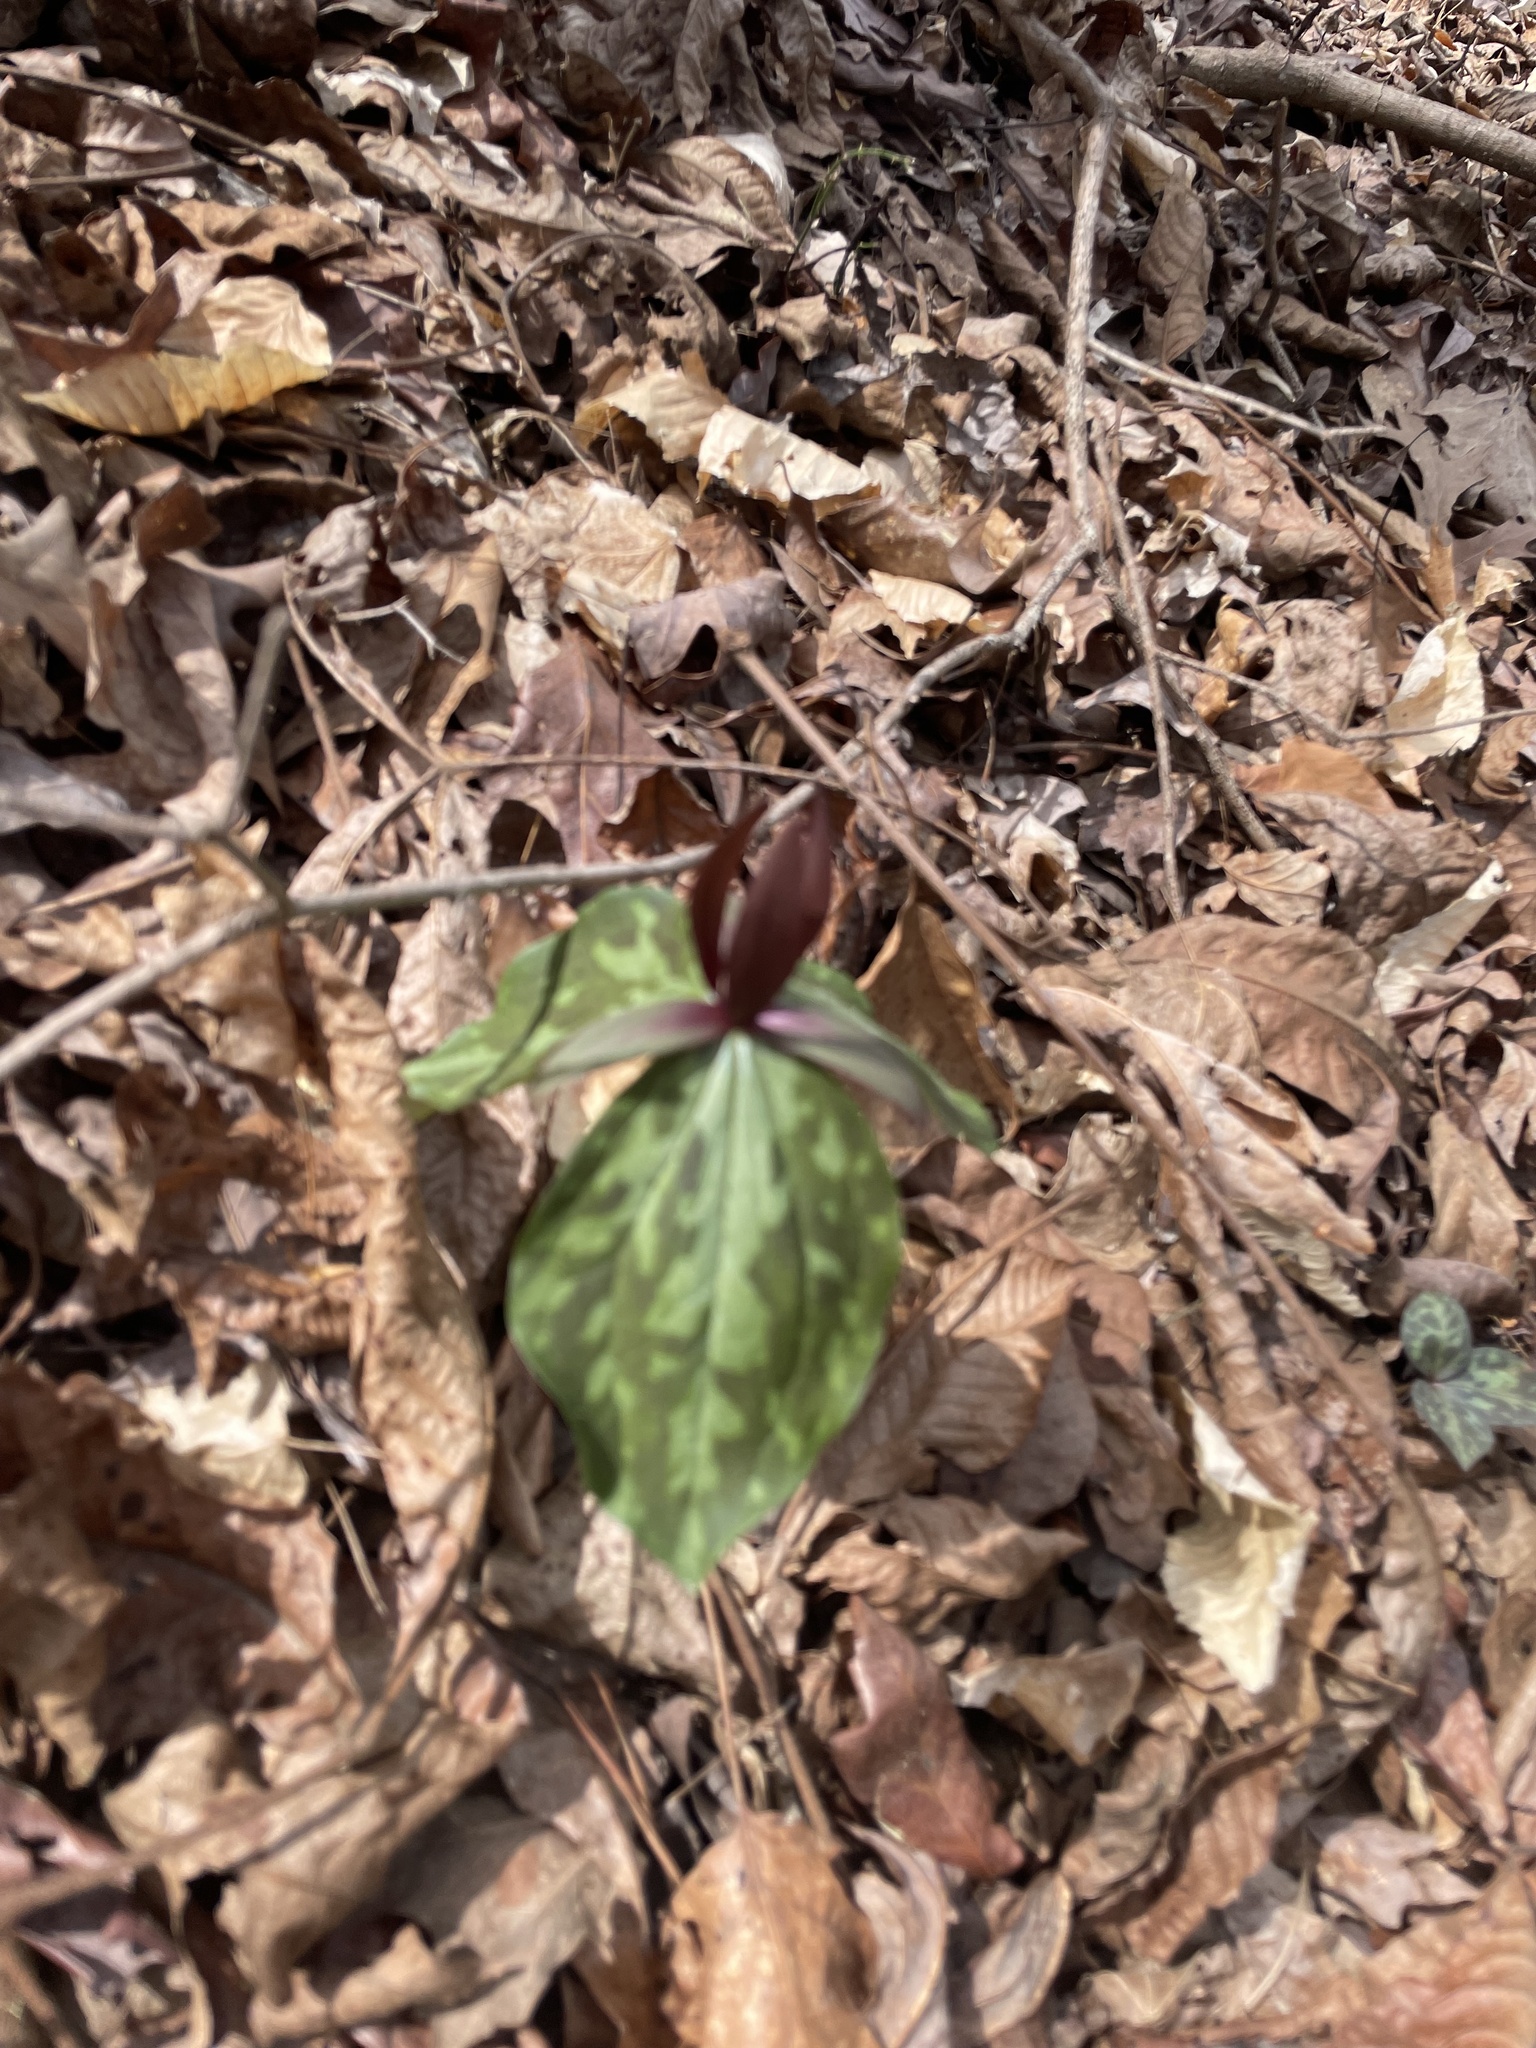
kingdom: Plantae
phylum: Tracheophyta
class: Liliopsida
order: Liliales
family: Melanthiaceae
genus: Trillium
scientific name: Trillium cuneatum
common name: Cuneate trillium
